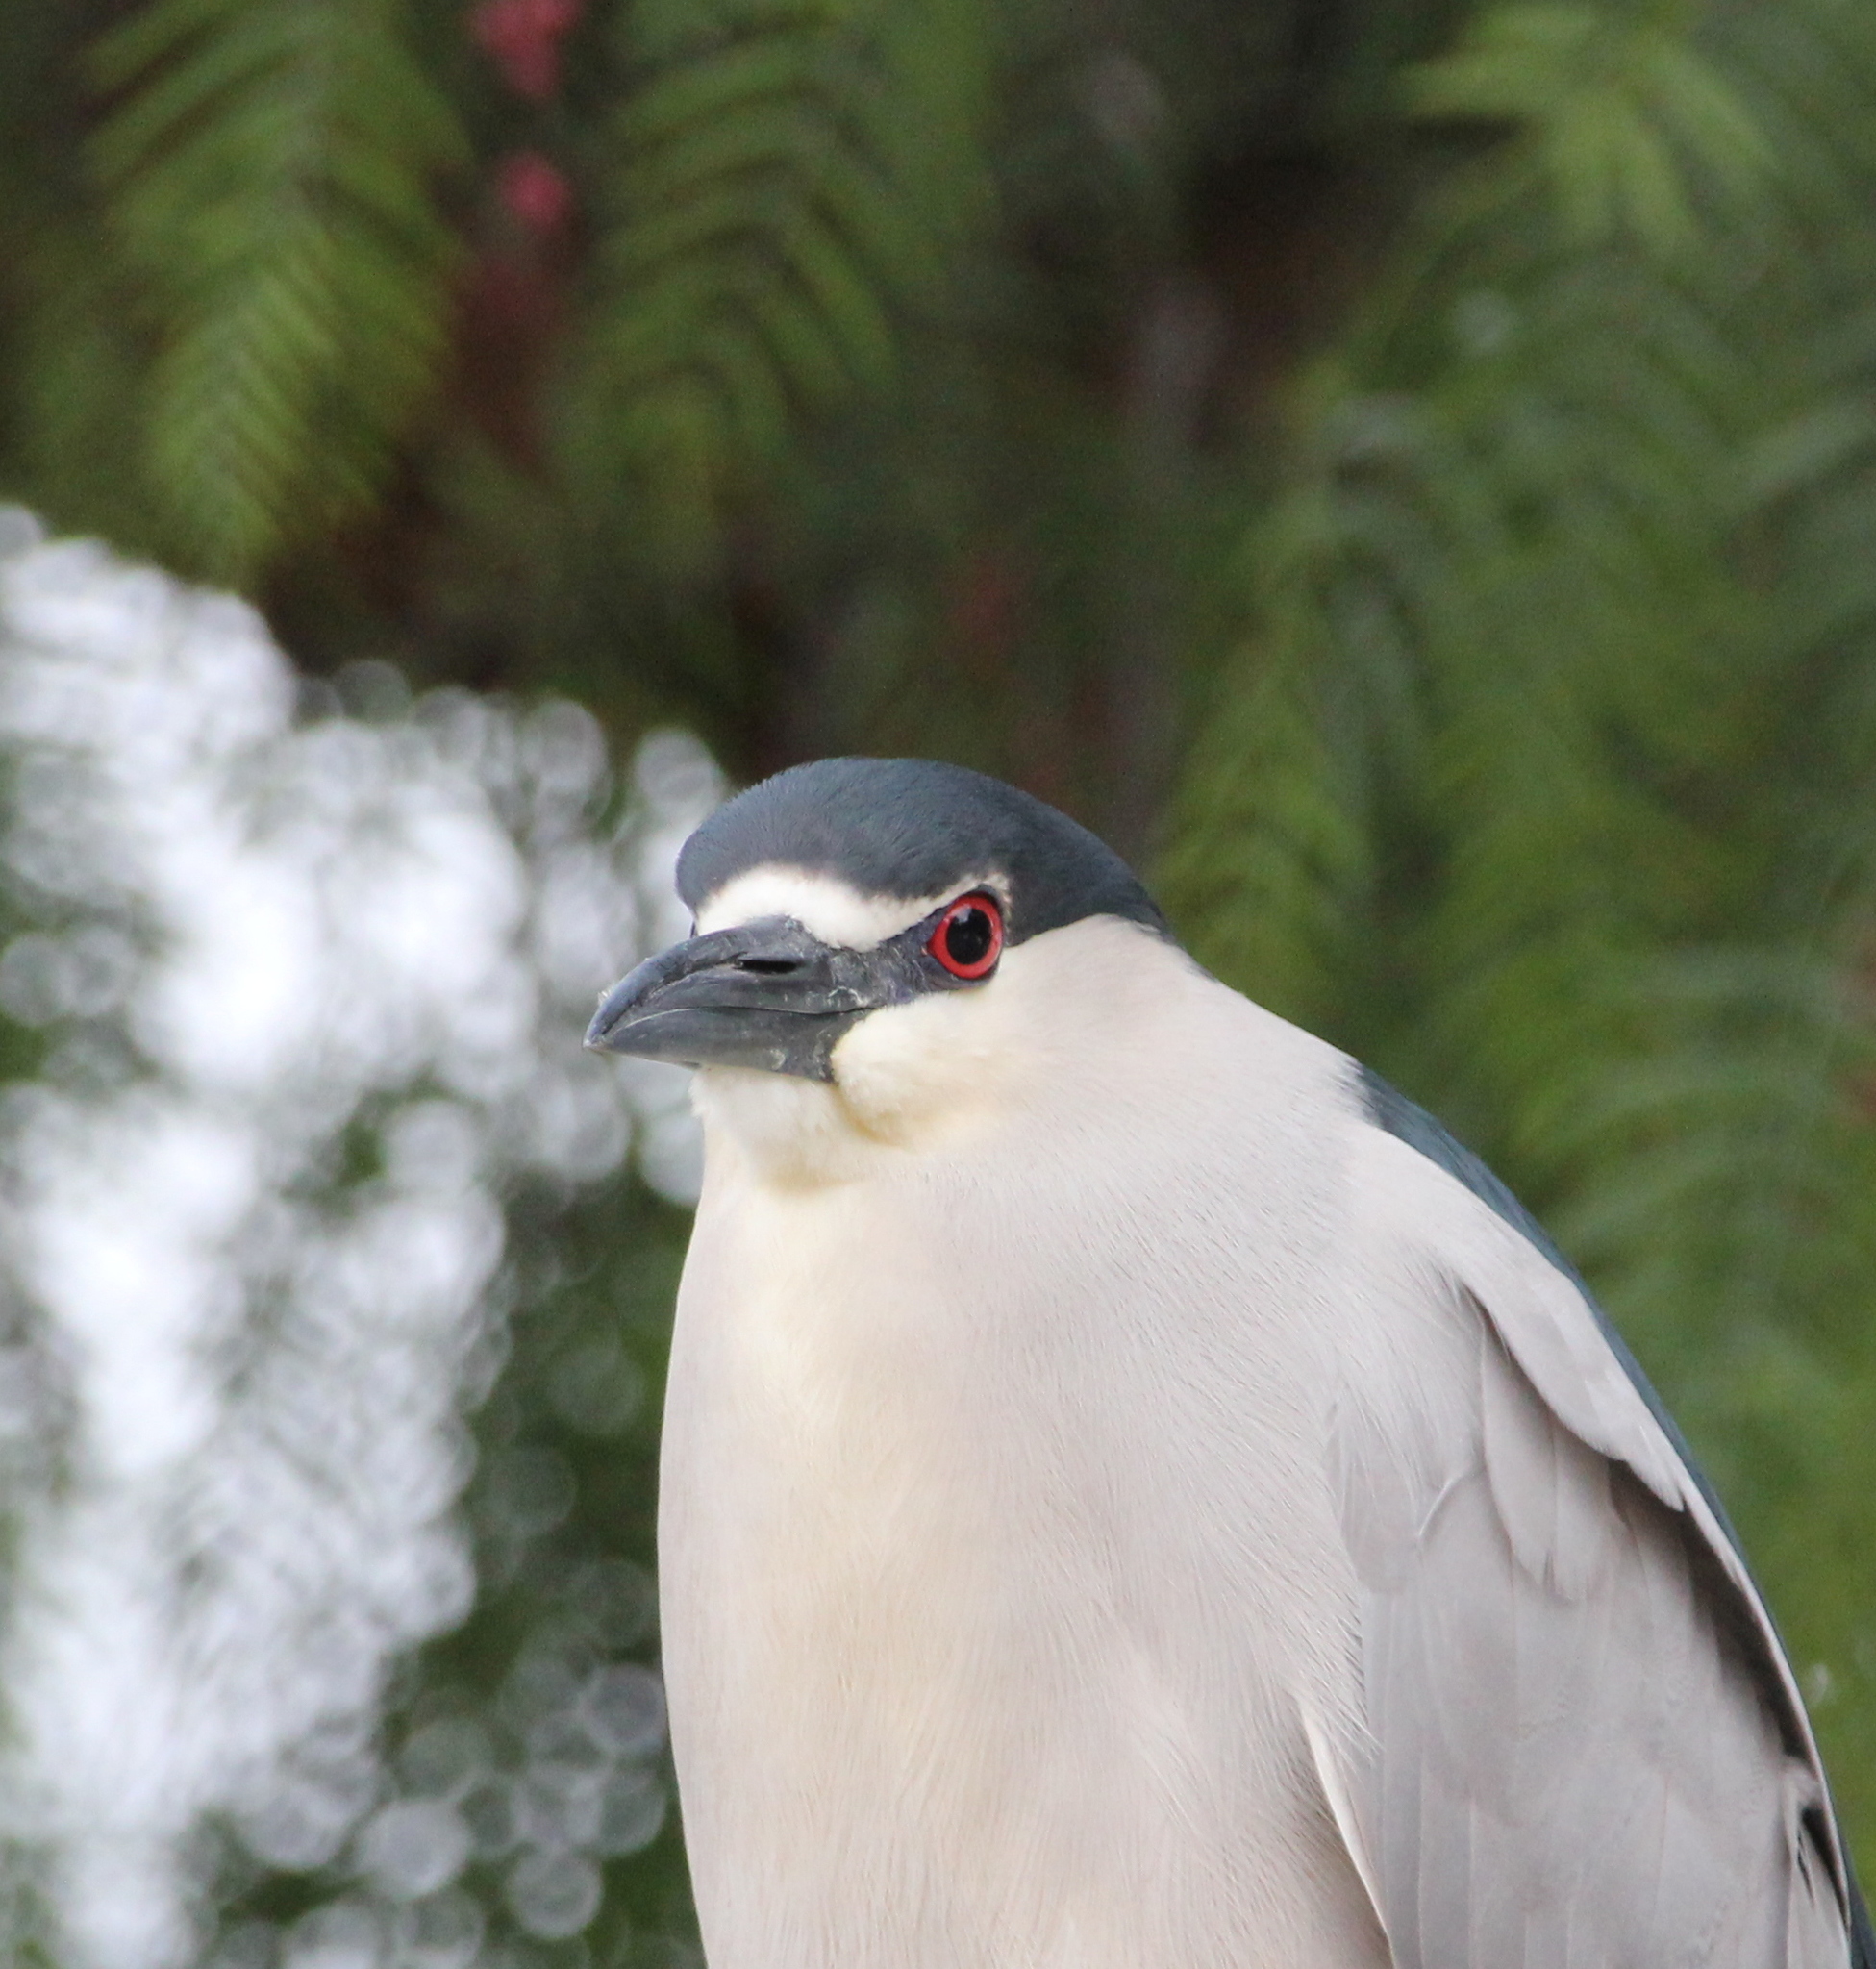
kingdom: Animalia
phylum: Chordata
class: Aves
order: Pelecaniformes
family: Ardeidae
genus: Nycticorax
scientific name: Nycticorax nycticorax
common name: Black-crowned night heron
